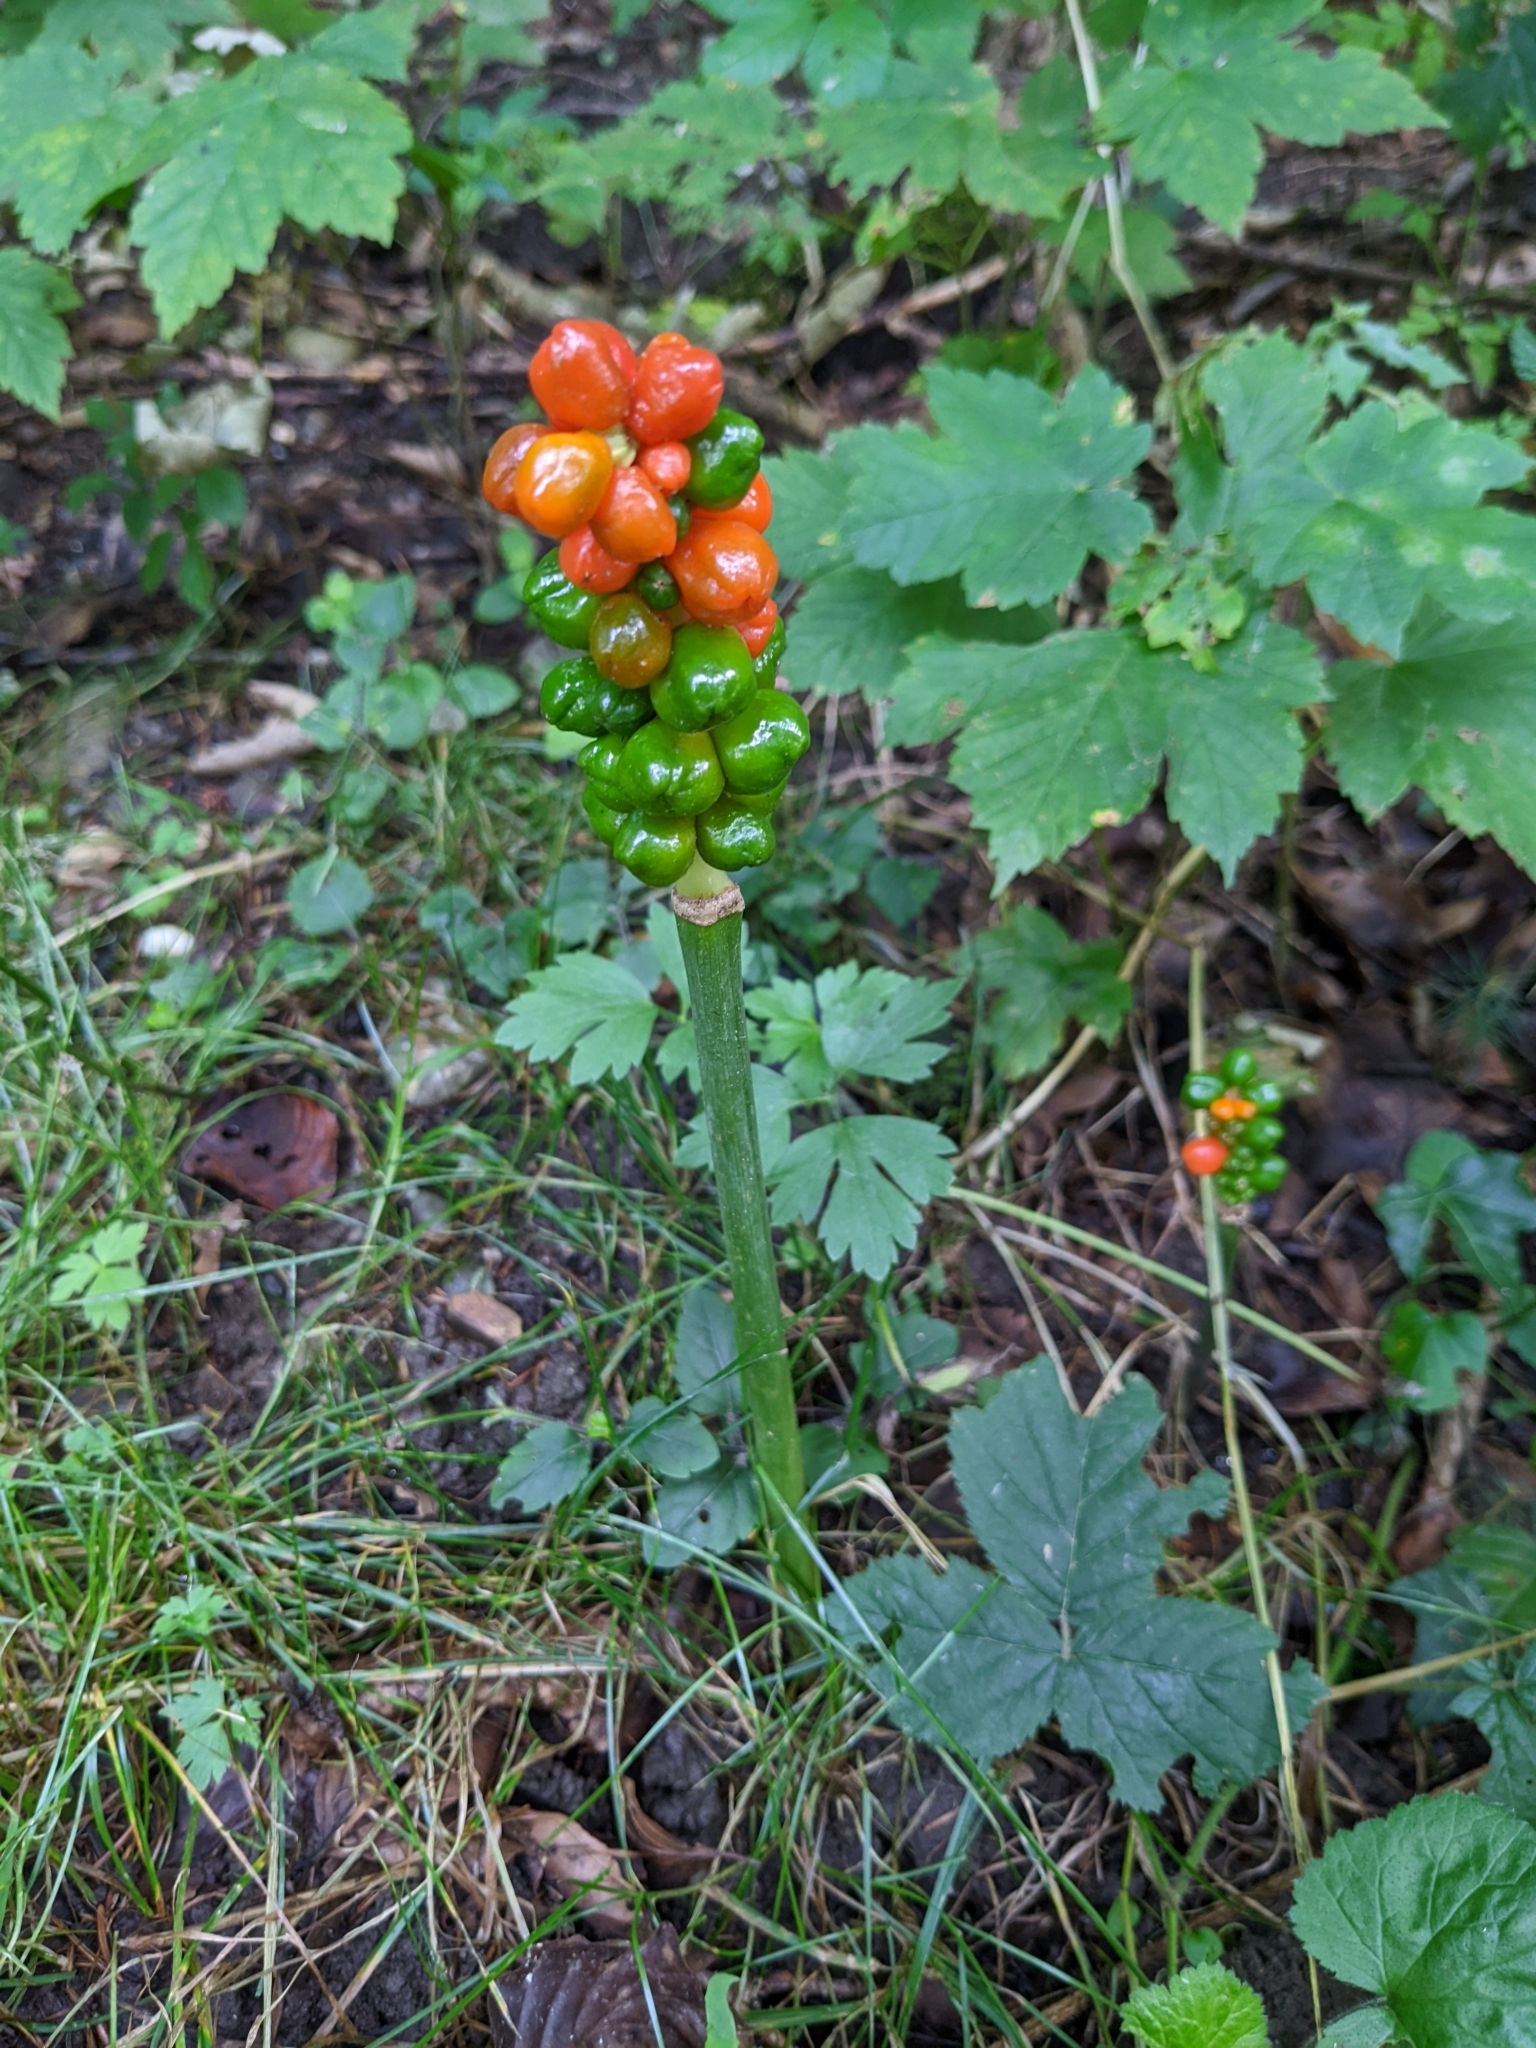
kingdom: Plantae
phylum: Tracheophyta
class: Liliopsida
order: Alismatales
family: Araceae
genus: Arum
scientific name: Arum maculatum
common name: Lords-and-ladies
